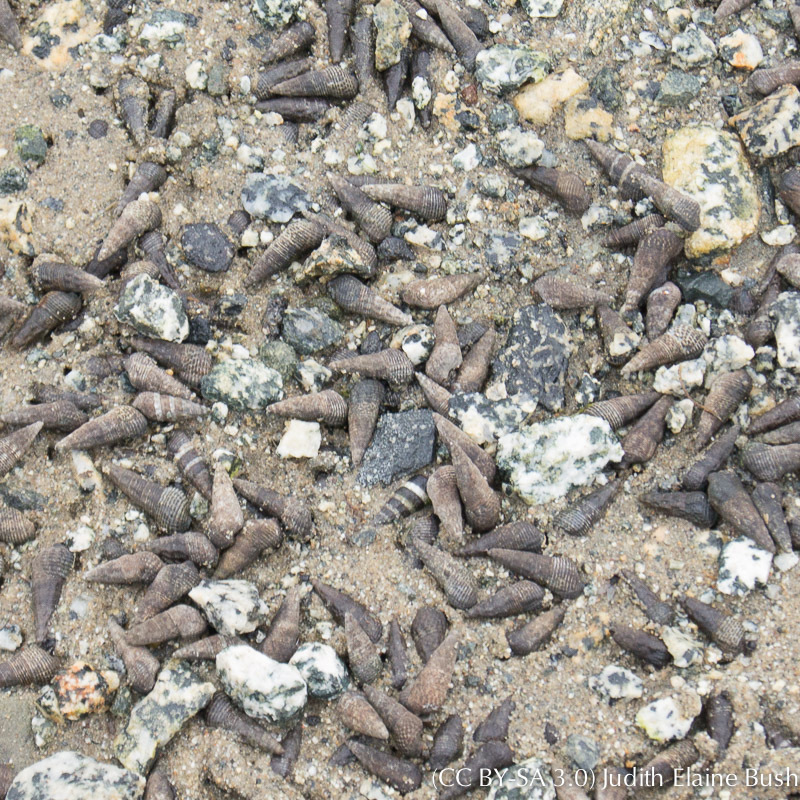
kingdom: Animalia
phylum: Mollusca
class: Gastropoda
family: Batillariidae
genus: Batillaria
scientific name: Batillaria attramentaria
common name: Japanese false cerith
